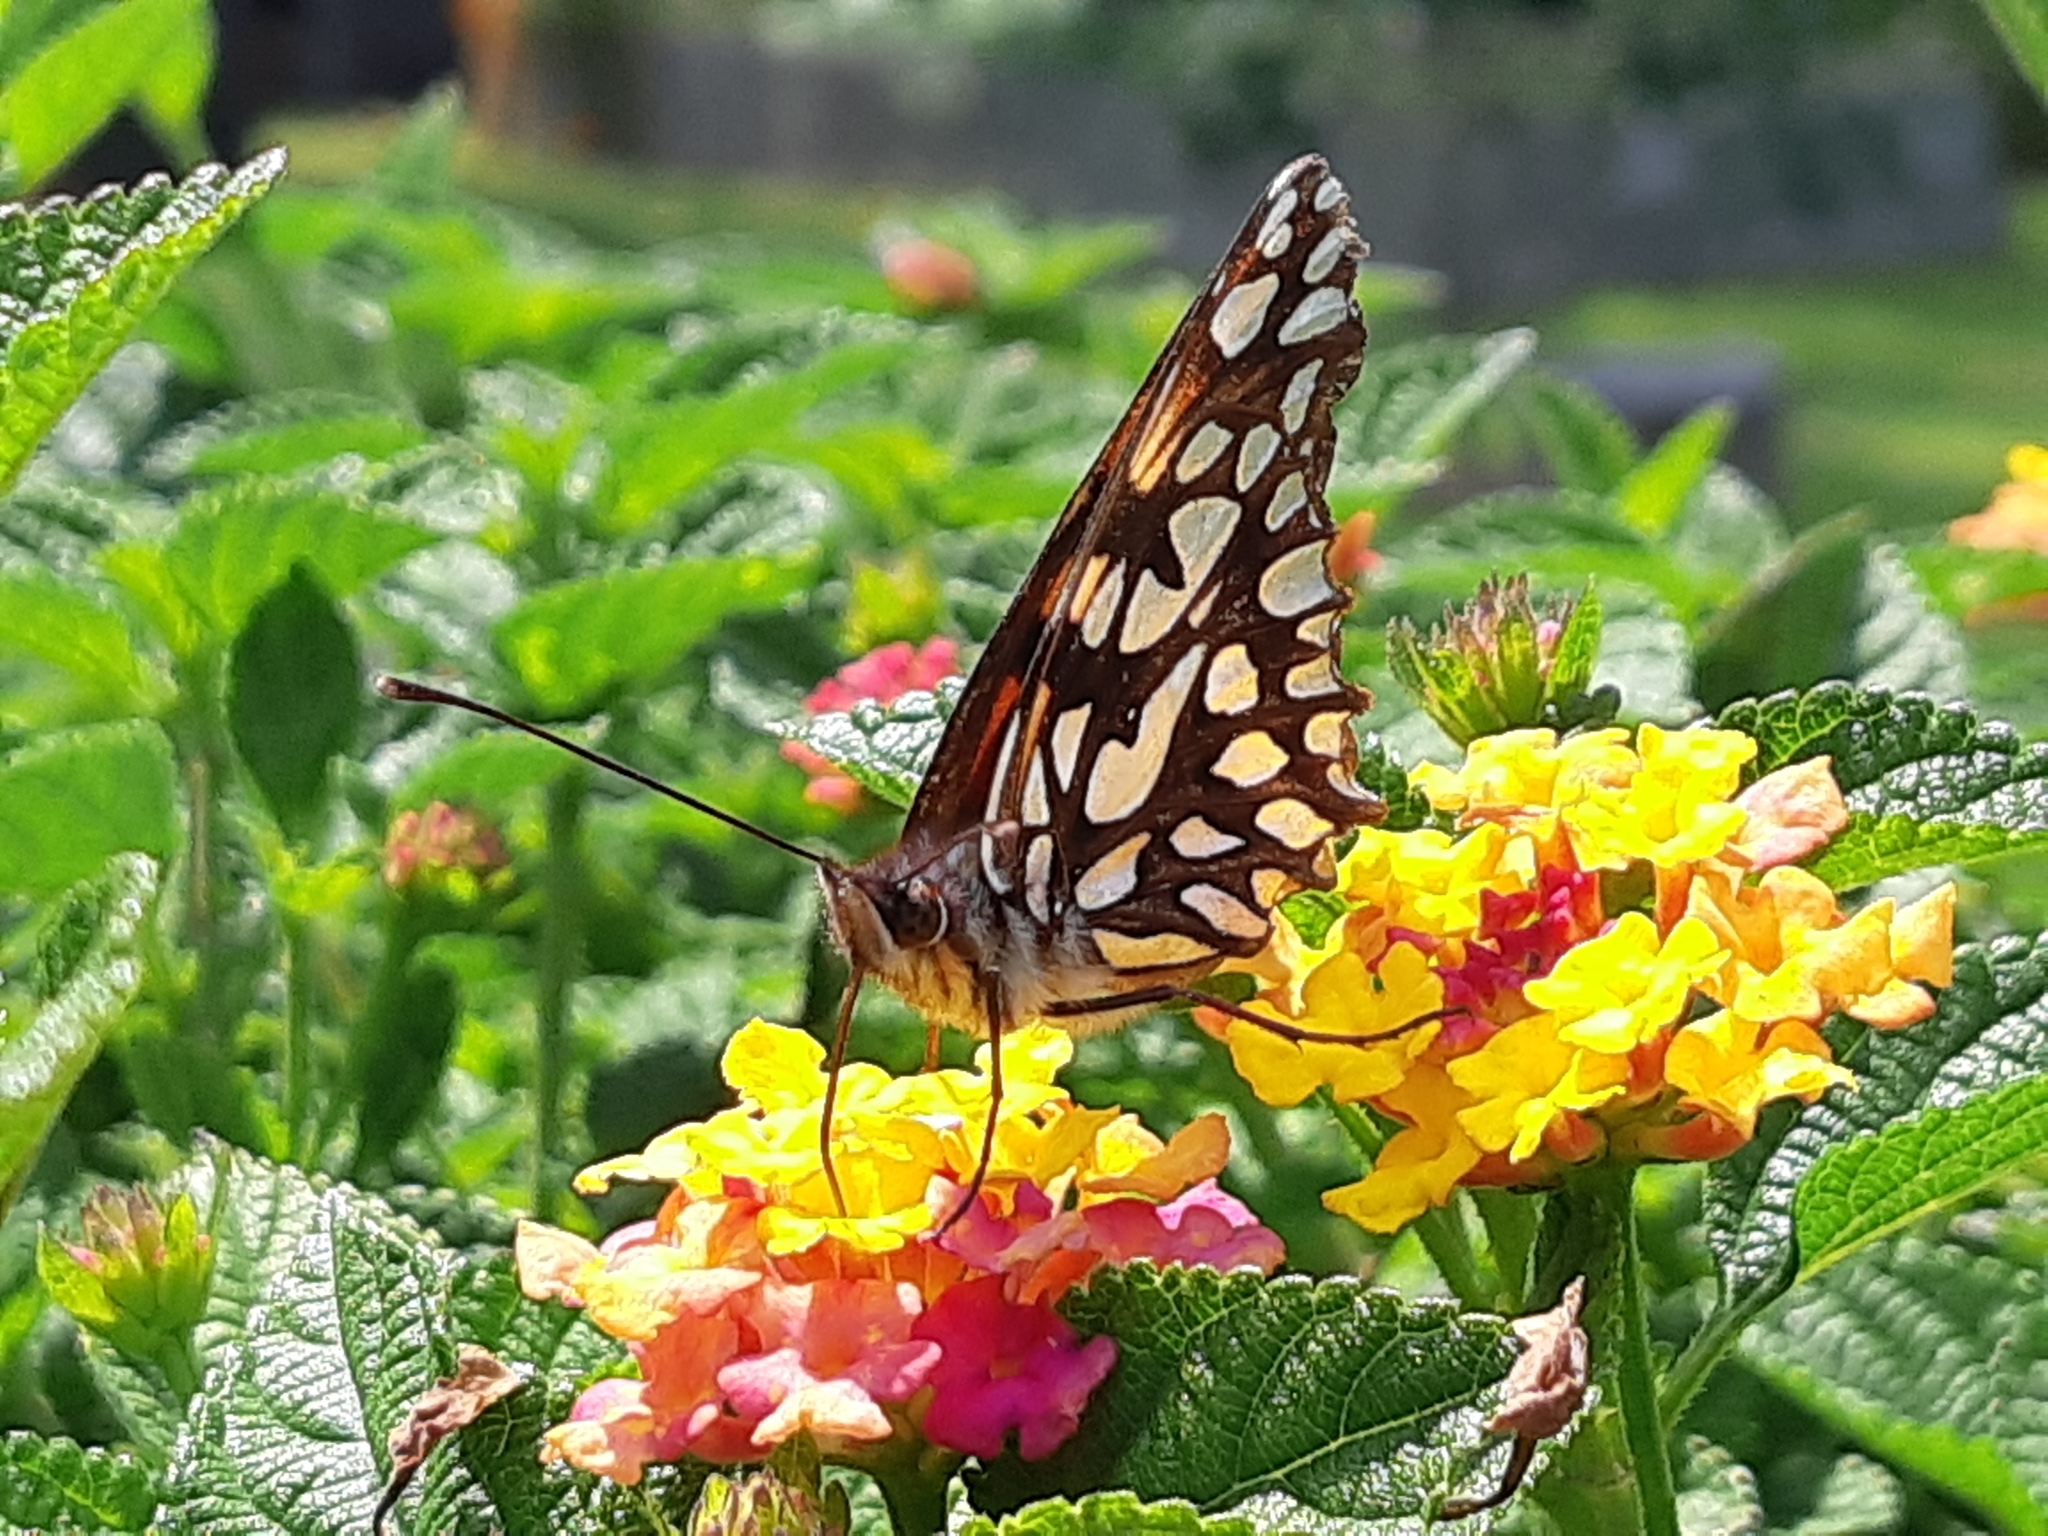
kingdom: Animalia
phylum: Arthropoda
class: Insecta
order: Lepidoptera
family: Nymphalidae
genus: Dione
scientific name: Dione glycera
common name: Andean silverspot
